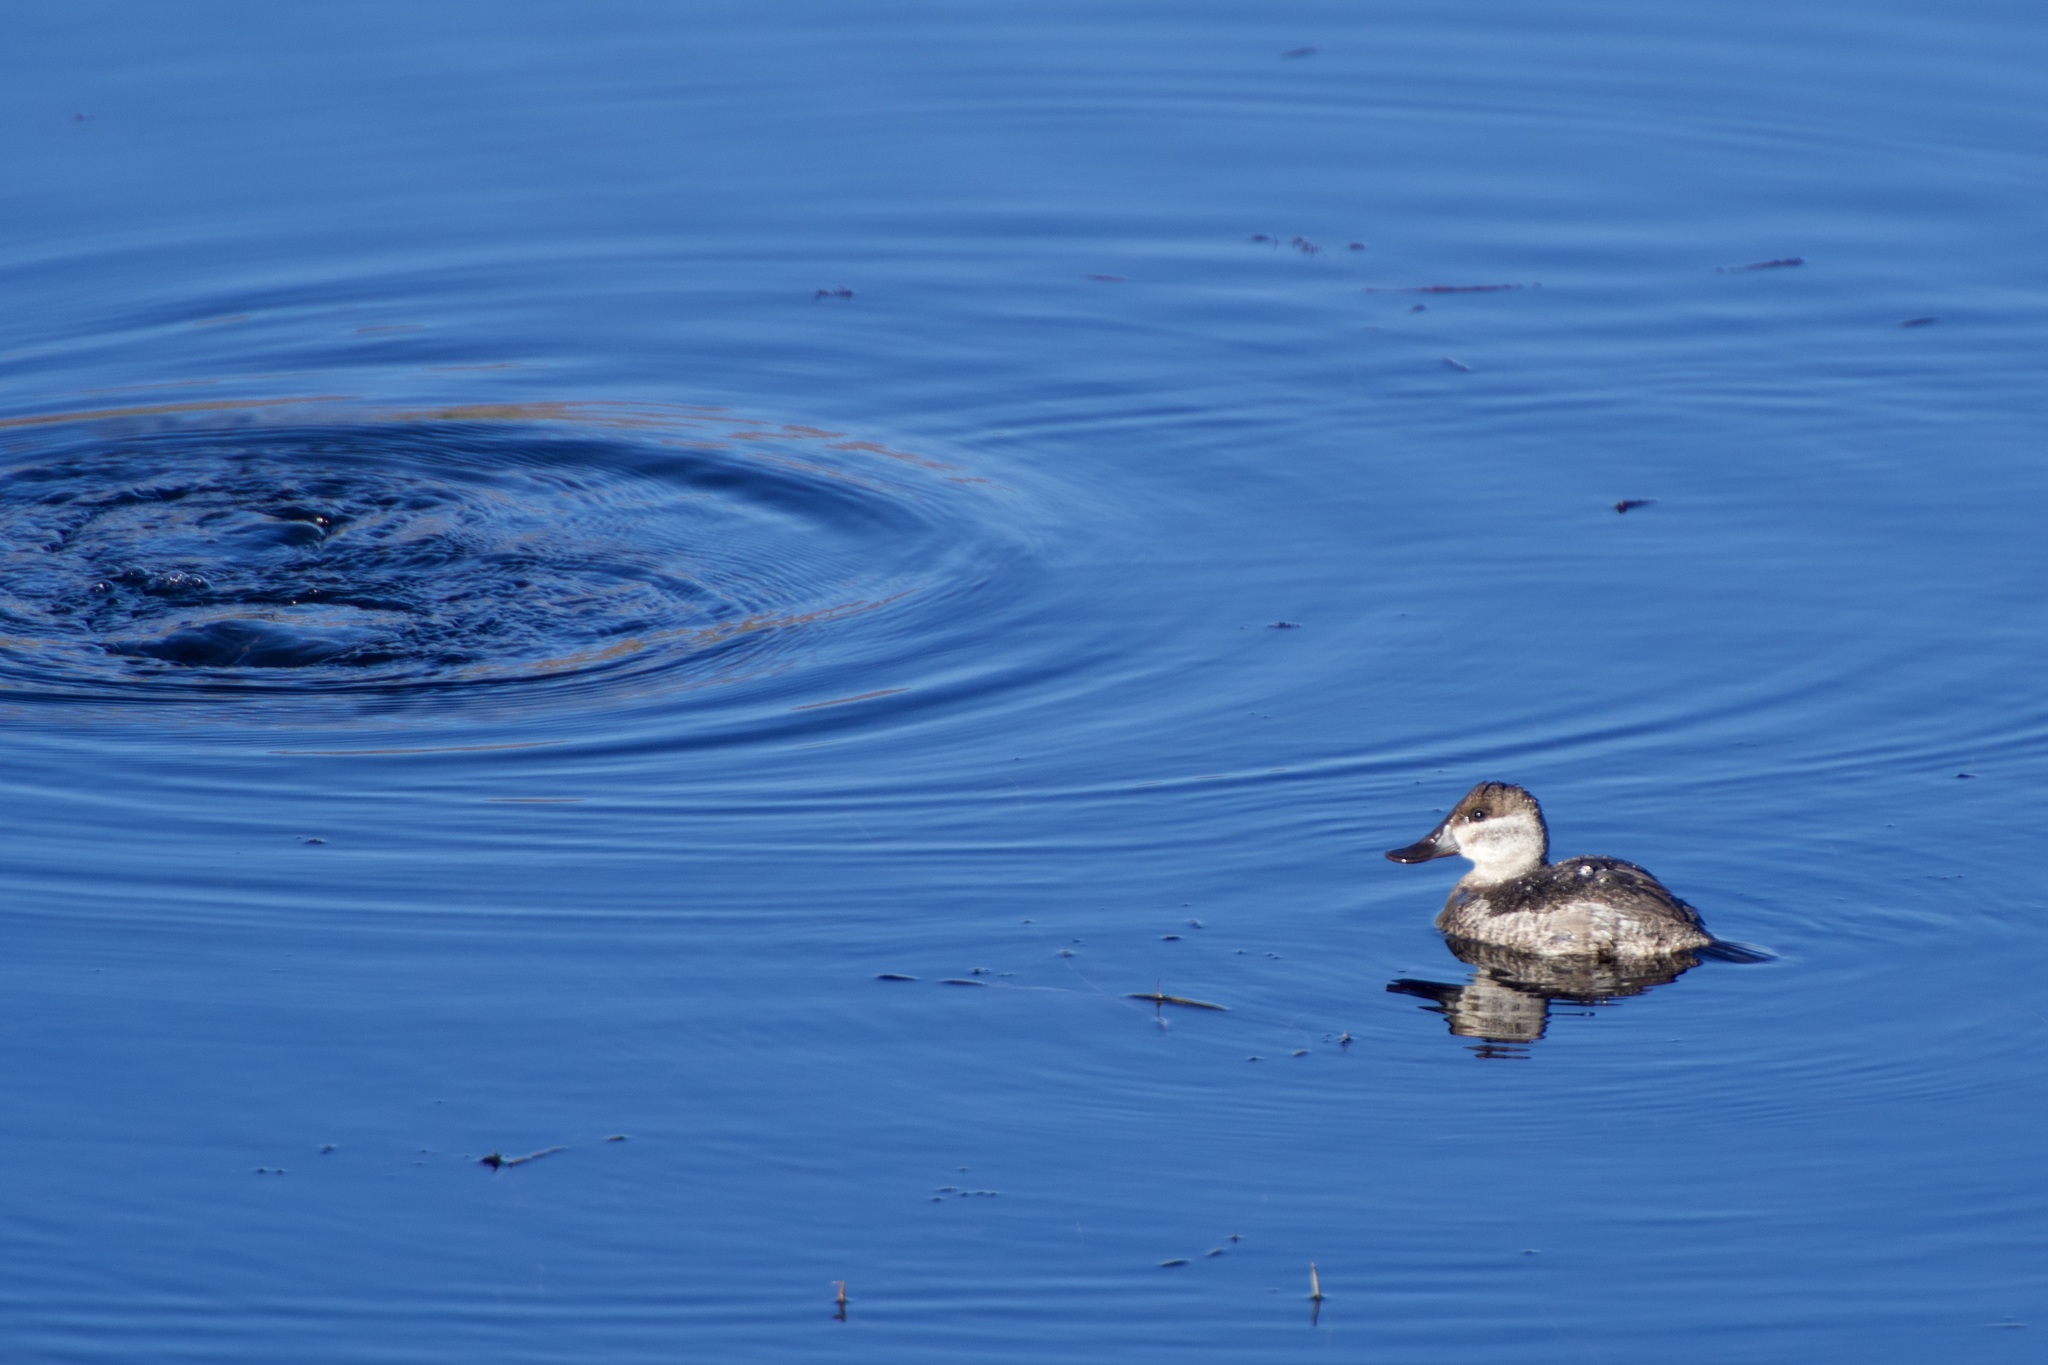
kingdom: Animalia
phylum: Chordata
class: Aves
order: Anseriformes
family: Anatidae
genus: Oxyura
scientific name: Oxyura jamaicensis
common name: Ruddy duck
